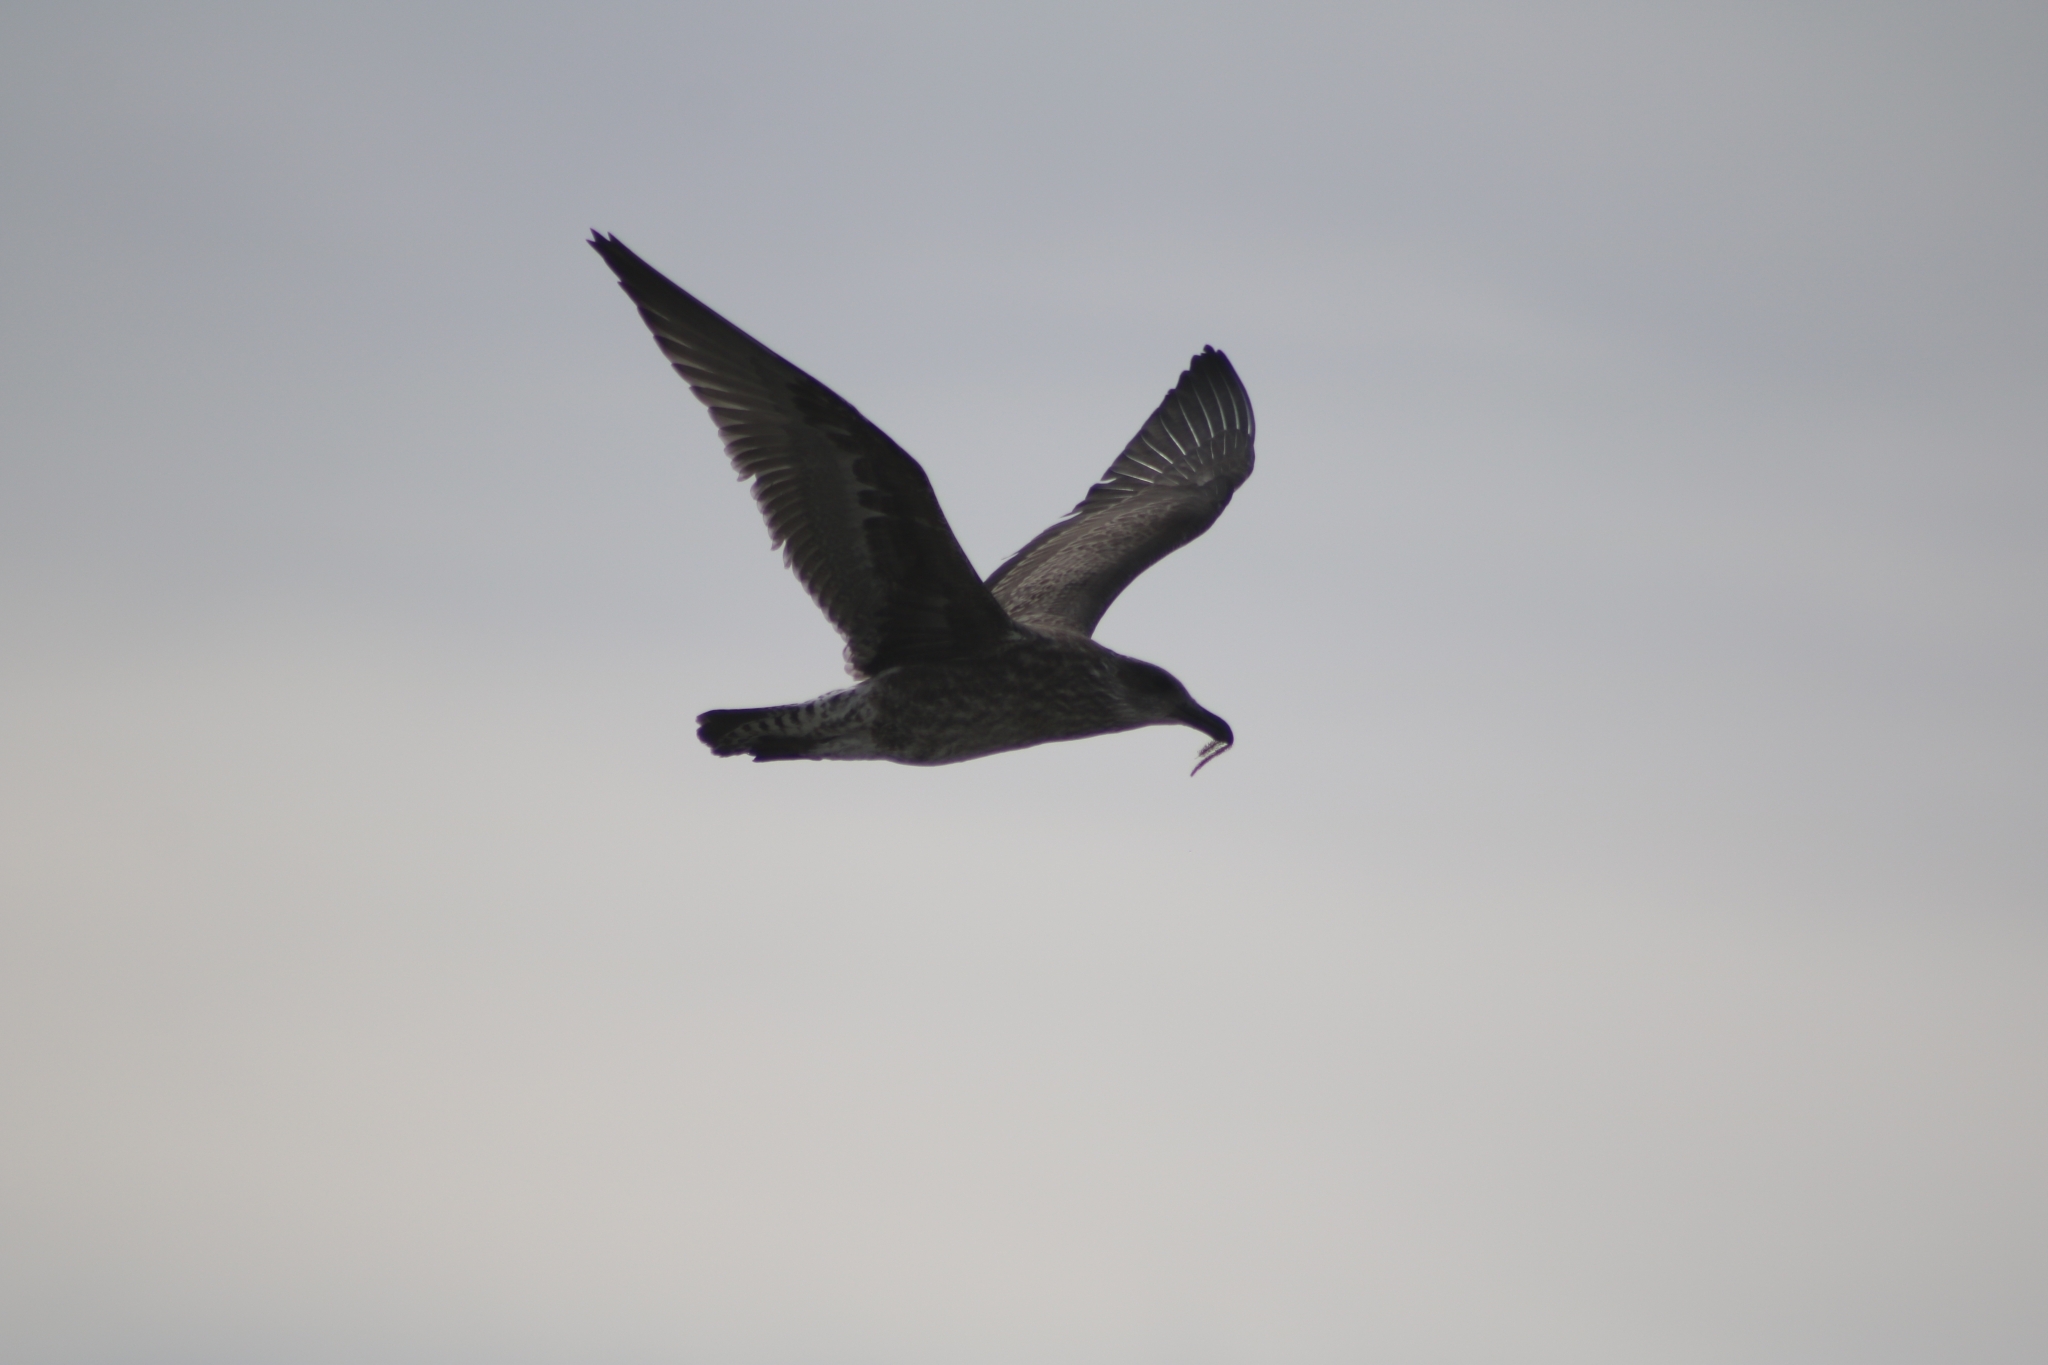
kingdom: Animalia
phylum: Chordata
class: Aves
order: Charadriiformes
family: Laridae
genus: Larus
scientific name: Larus dominicanus
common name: Kelp gull
